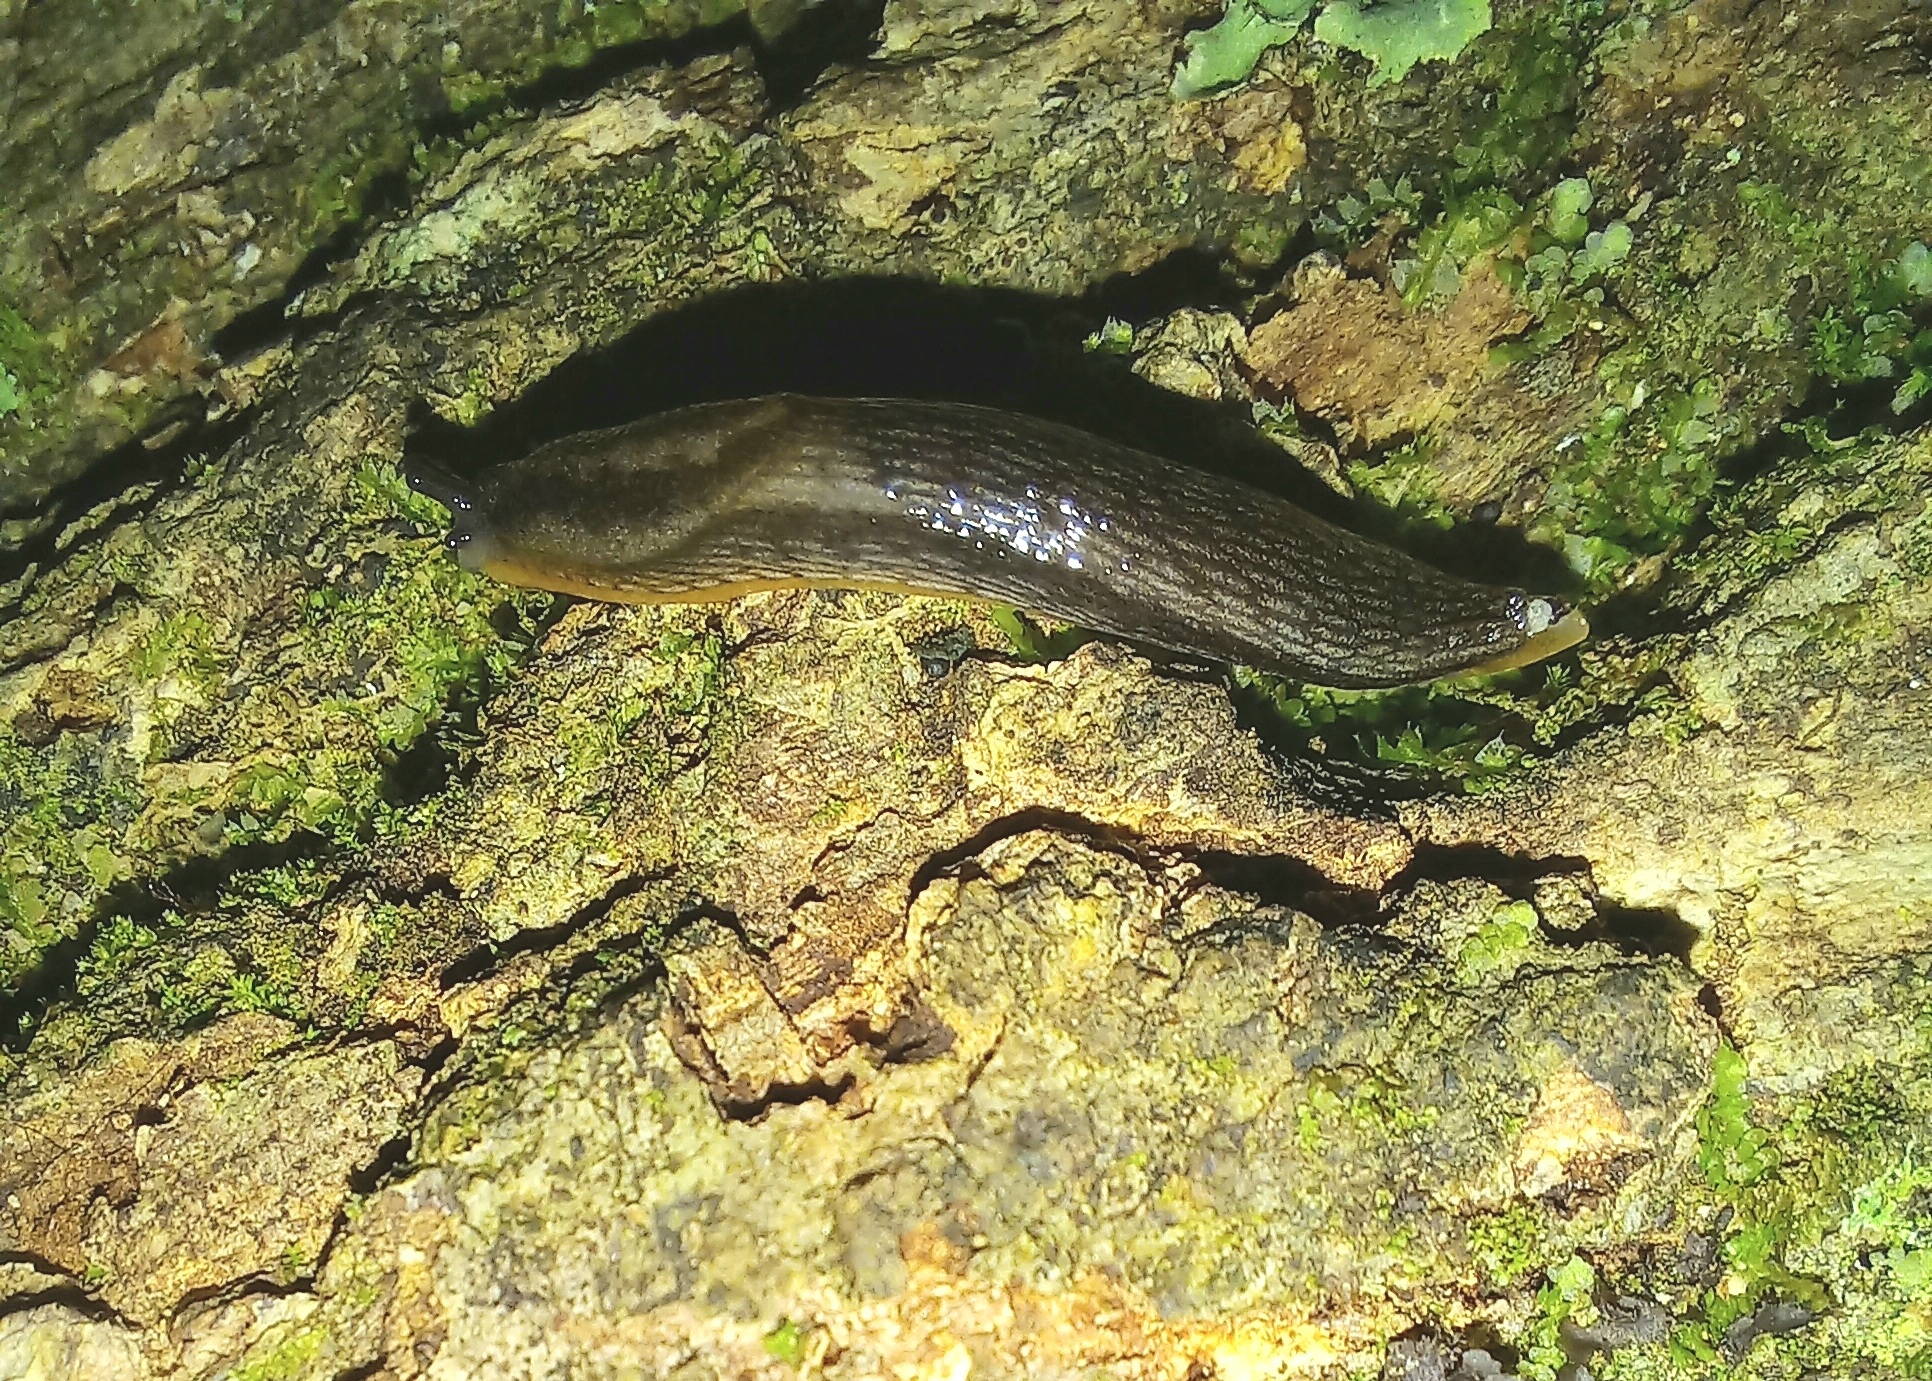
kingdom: Animalia
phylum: Mollusca
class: Gastropoda
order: Stylommatophora
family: Arionidae
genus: Kobeltia
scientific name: Kobeltia
